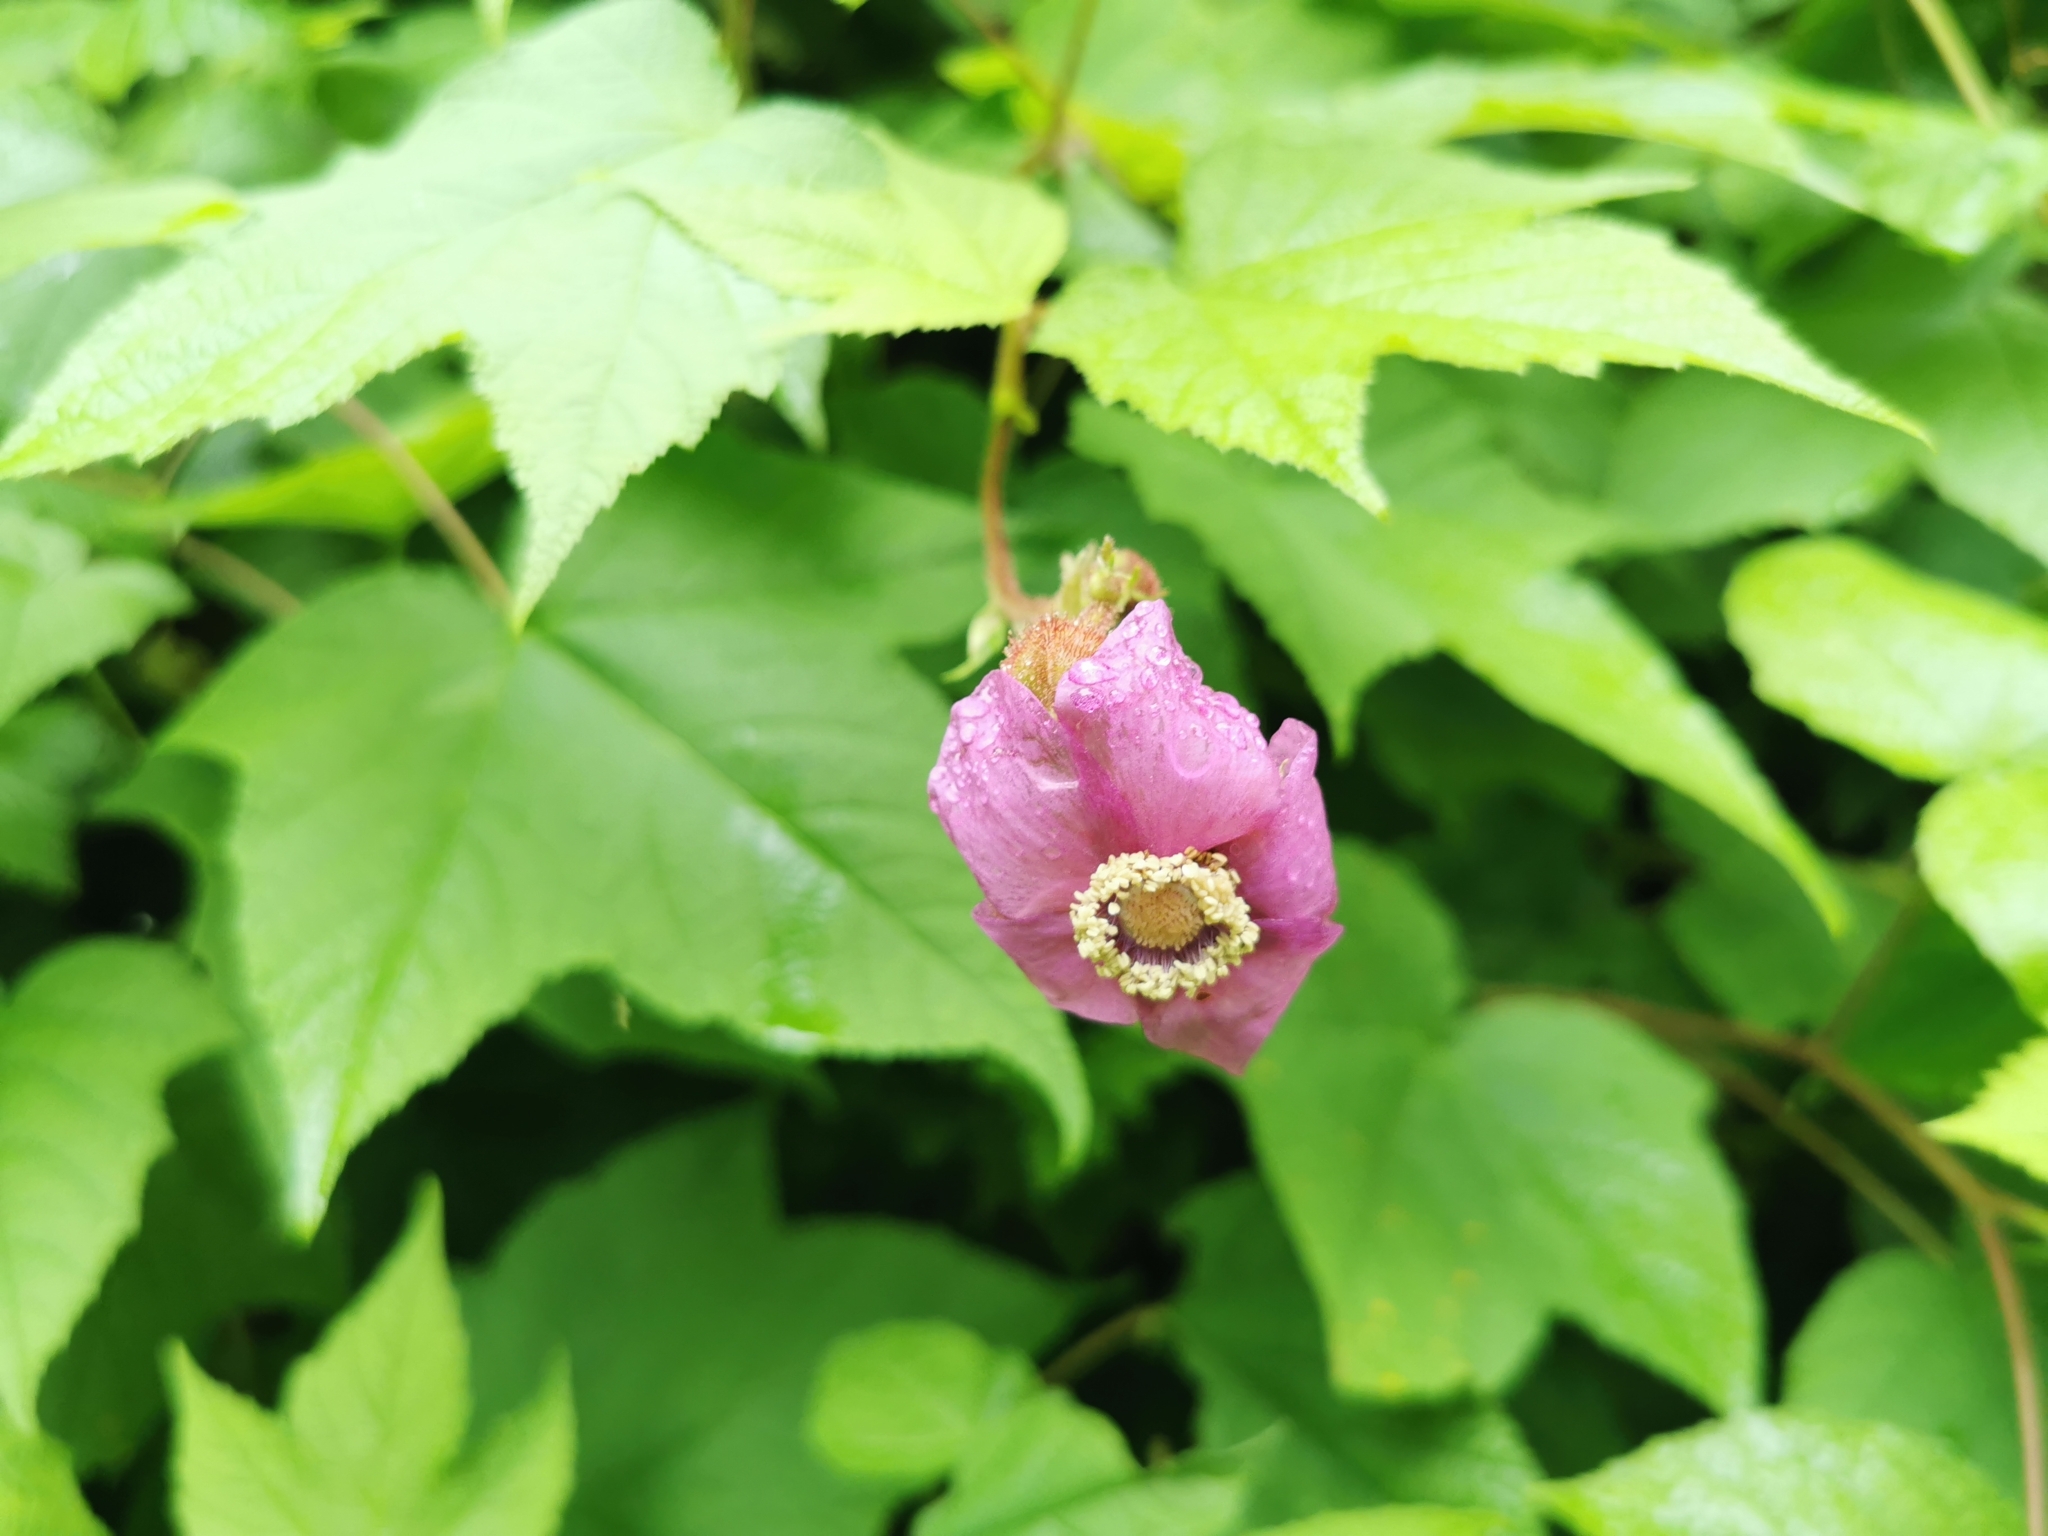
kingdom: Plantae
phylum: Tracheophyta
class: Magnoliopsida
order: Rosales
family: Rosaceae
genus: Rubus
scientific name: Rubus odoratus
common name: Purple-flowered raspberry
